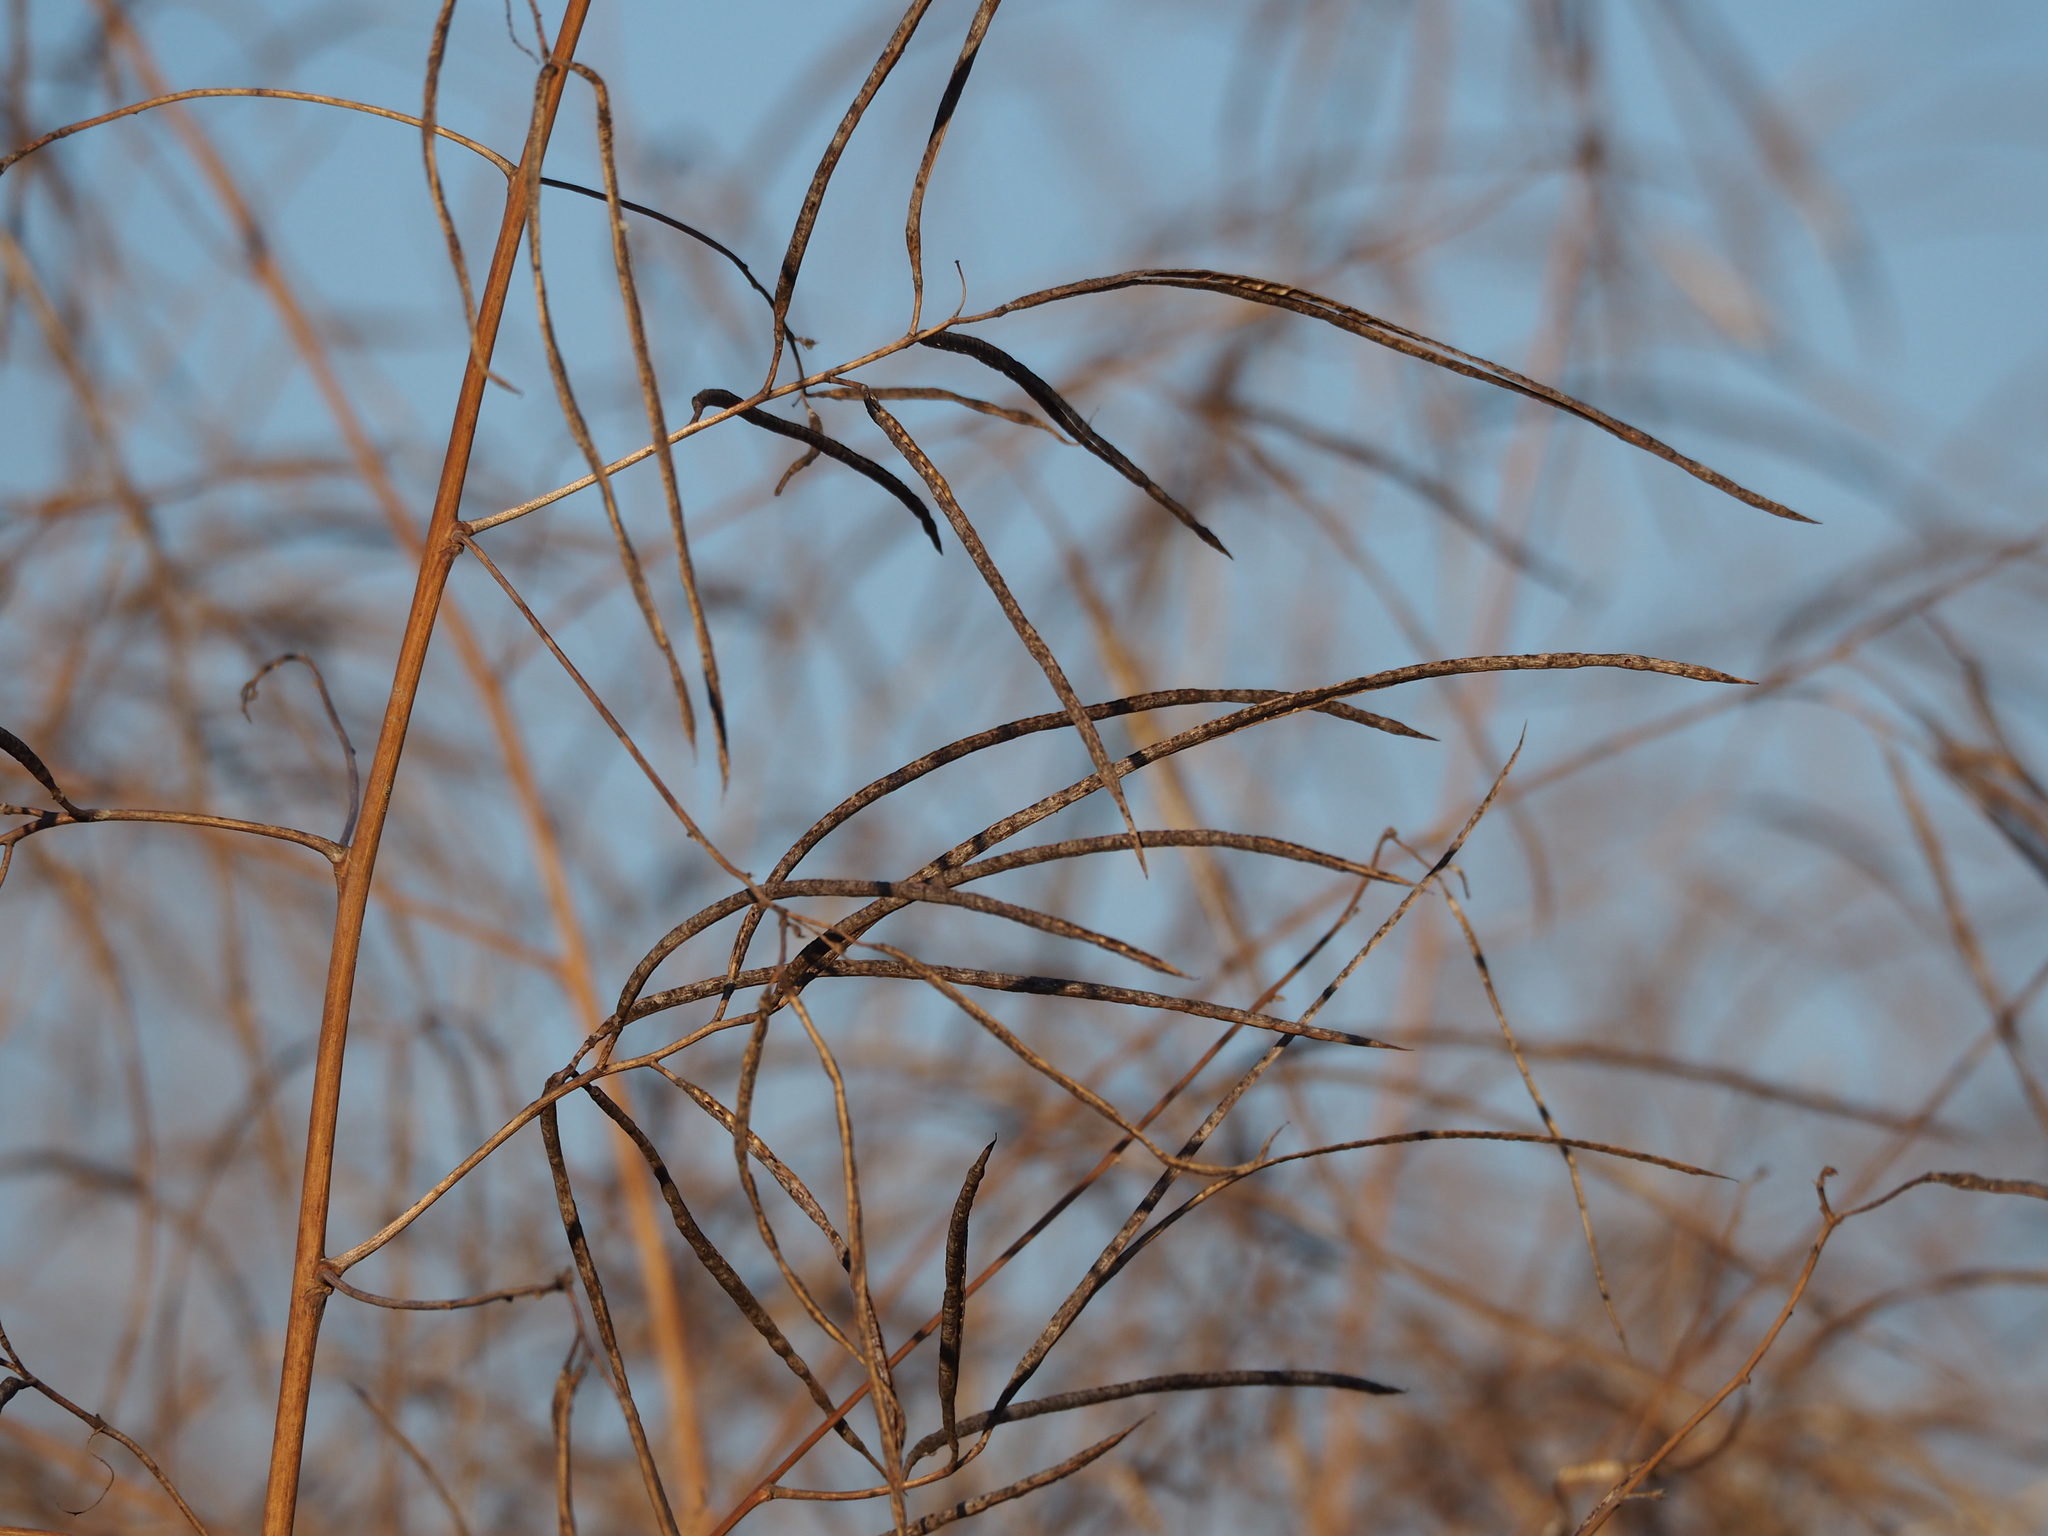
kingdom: Plantae
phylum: Tracheophyta
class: Magnoliopsida
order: Fabales
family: Fabaceae
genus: Sesbania
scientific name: Sesbania cannabina
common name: Canicha
